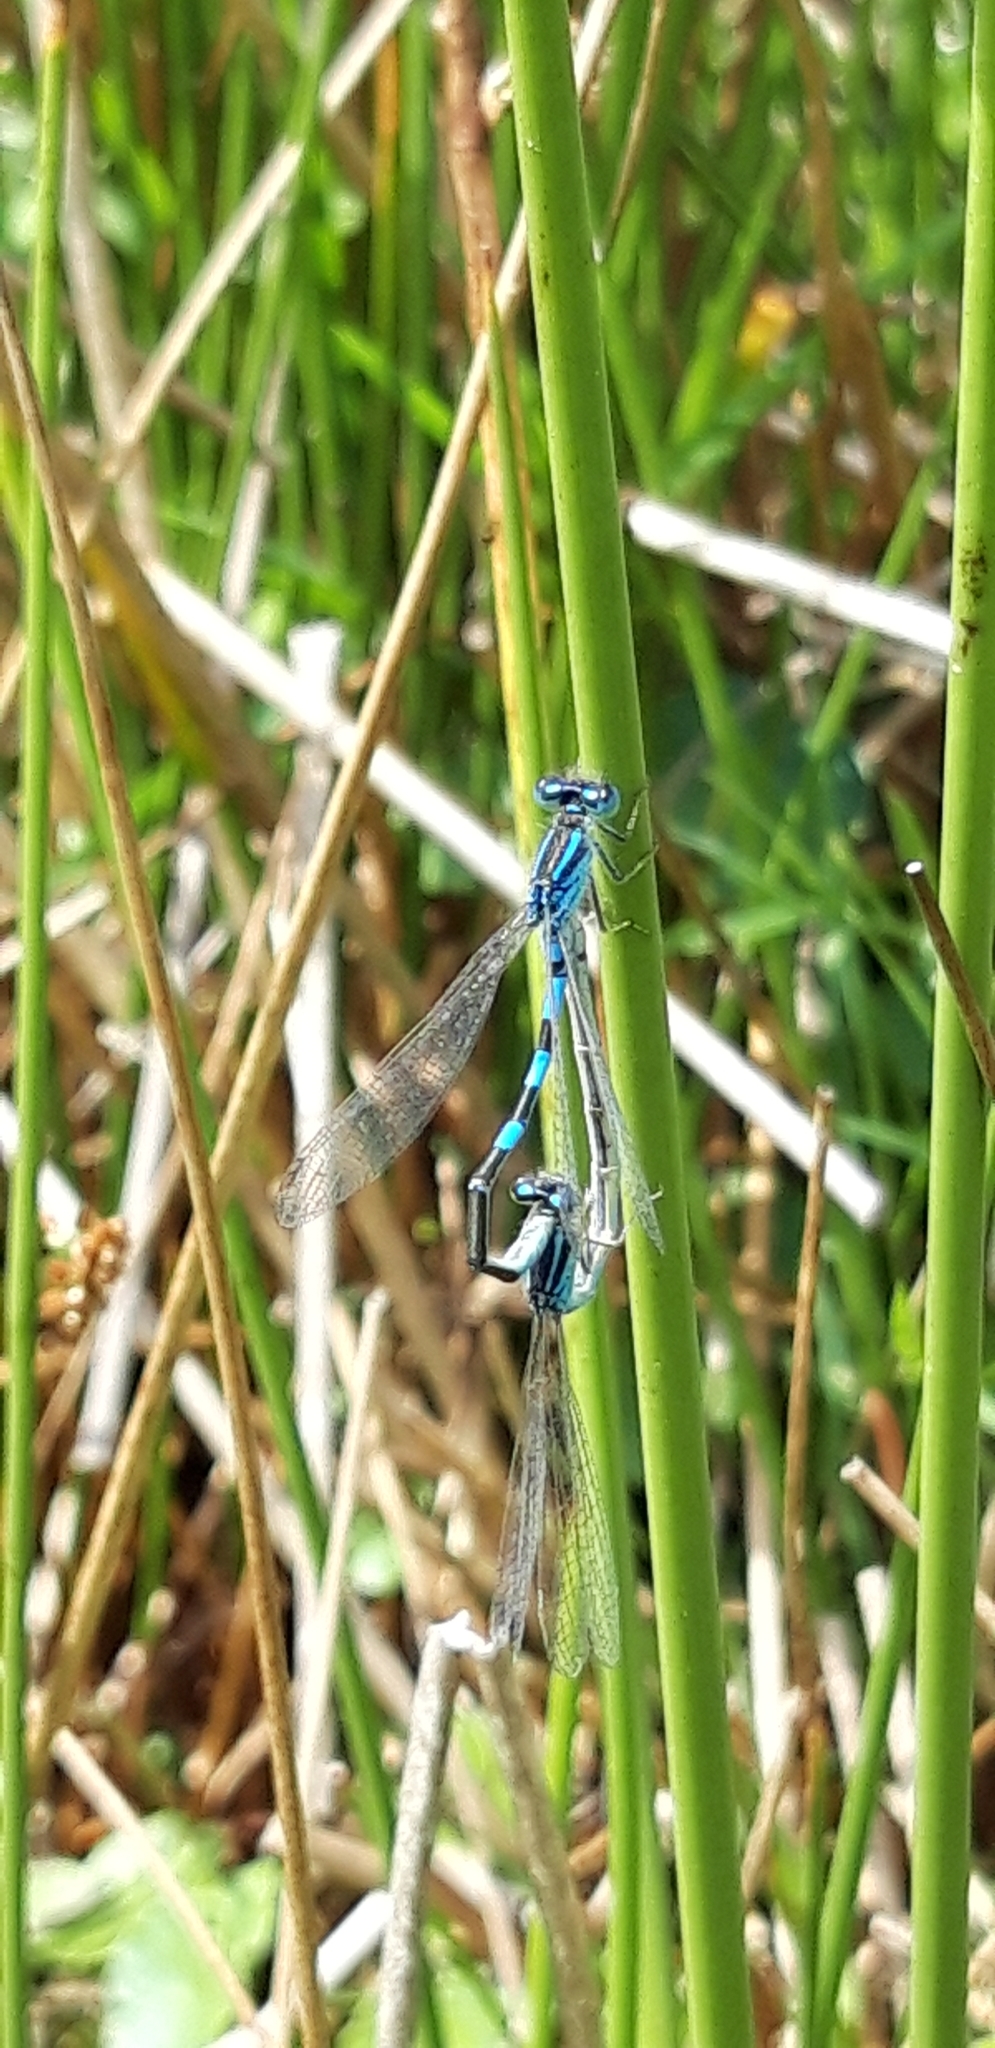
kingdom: Animalia
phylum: Arthropoda
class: Insecta
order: Odonata
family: Coenagrionidae
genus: Coenagrion
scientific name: Coenagrion scitulum
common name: Dainty bluet
